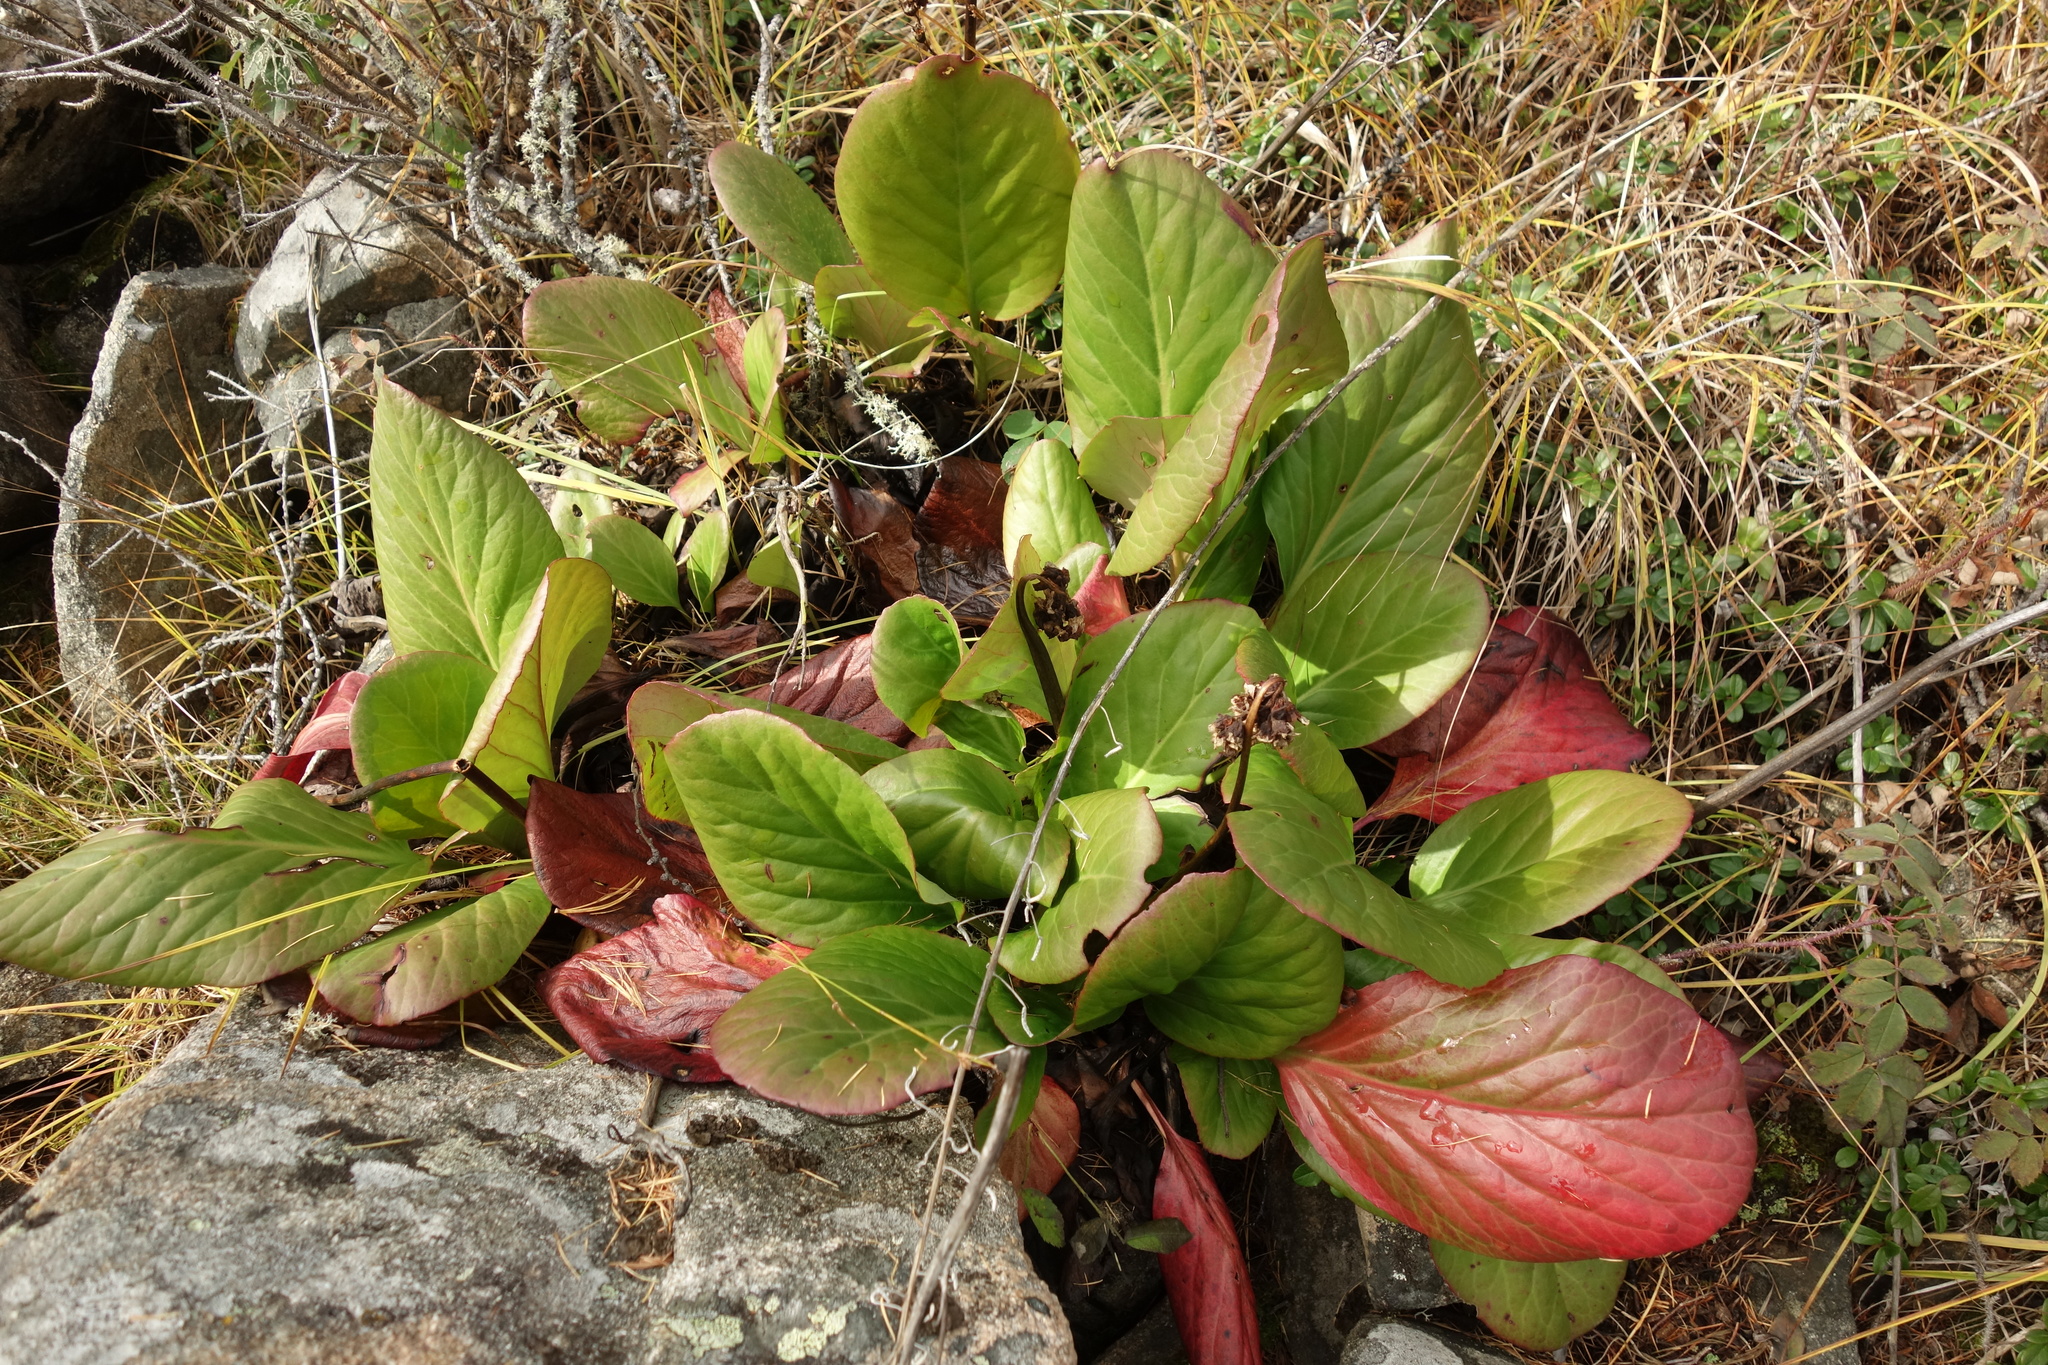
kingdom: Plantae
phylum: Tracheophyta
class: Magnoliopsida
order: Saxifragales
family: Saxifragaceae
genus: Bergenia
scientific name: Bergenia crassifolia
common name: Elephant-ears
